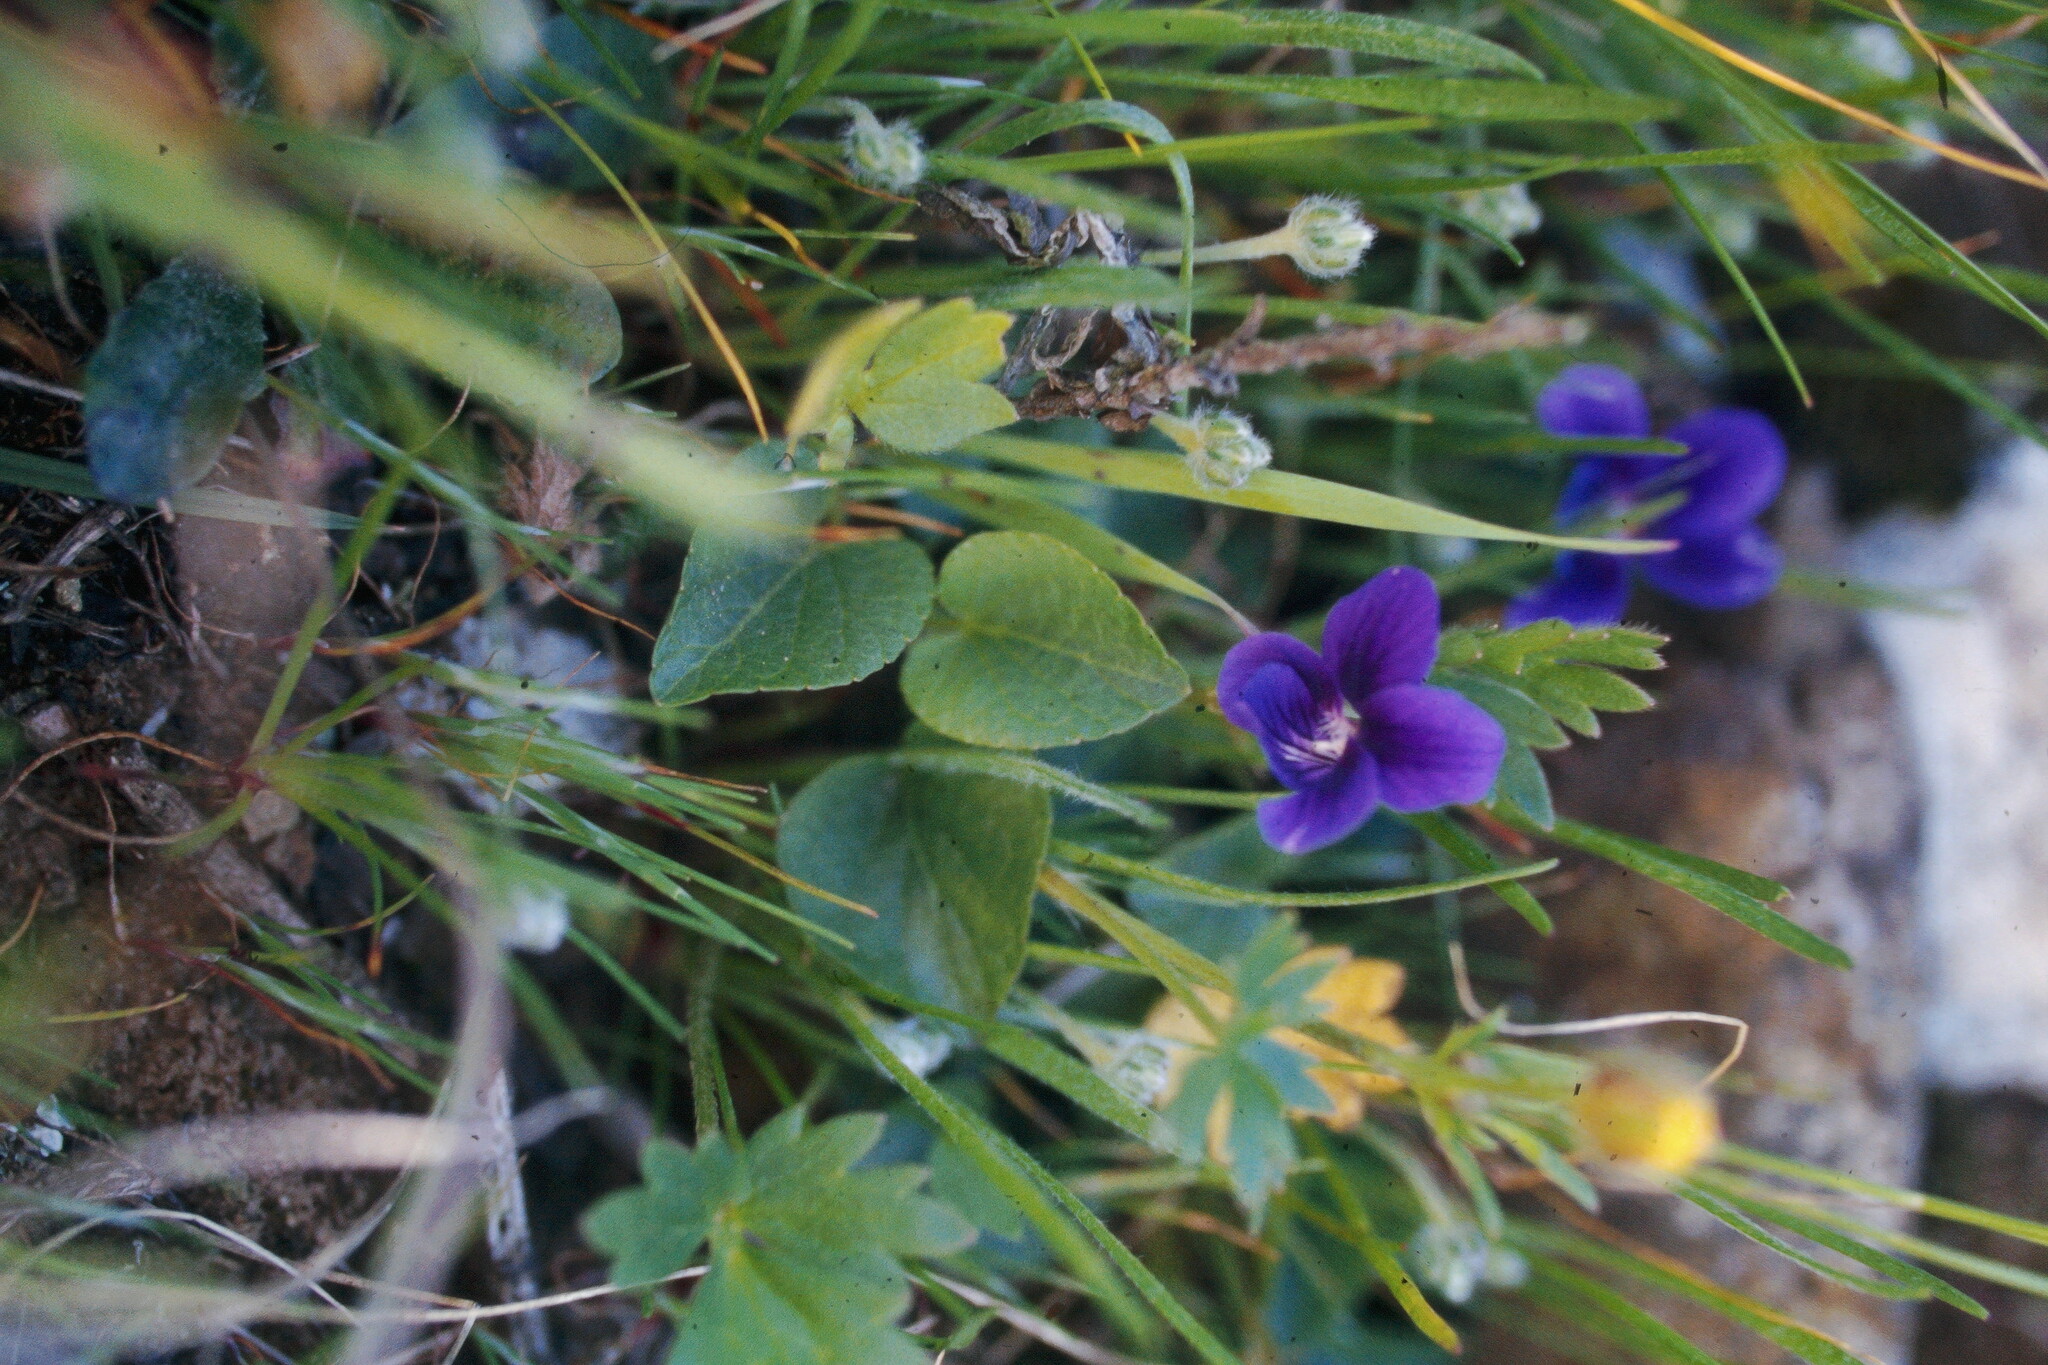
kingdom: Plantae
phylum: Tracheophyta
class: Magnoliopsida
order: Malpighiales
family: Violaceae
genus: Viola
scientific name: Viola adunca
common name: Sand violet
